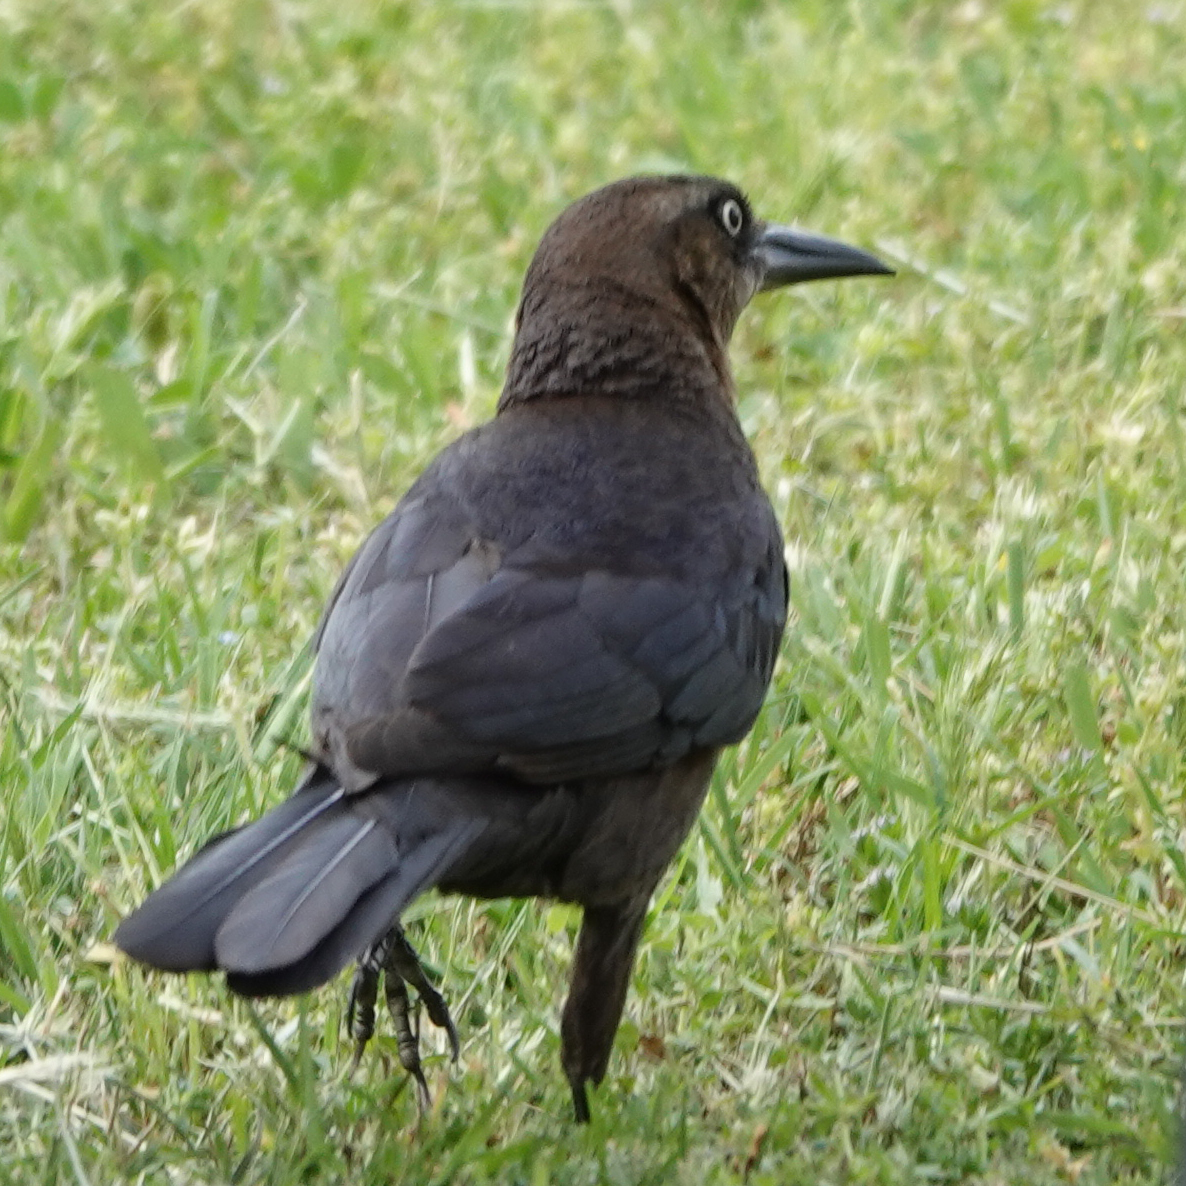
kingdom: Animalia
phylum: Chordata
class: Aves
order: Passeriformes
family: Icteridae
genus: Quiscalus
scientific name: Quiscalus mexicanus
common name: Great-tailed grackle
